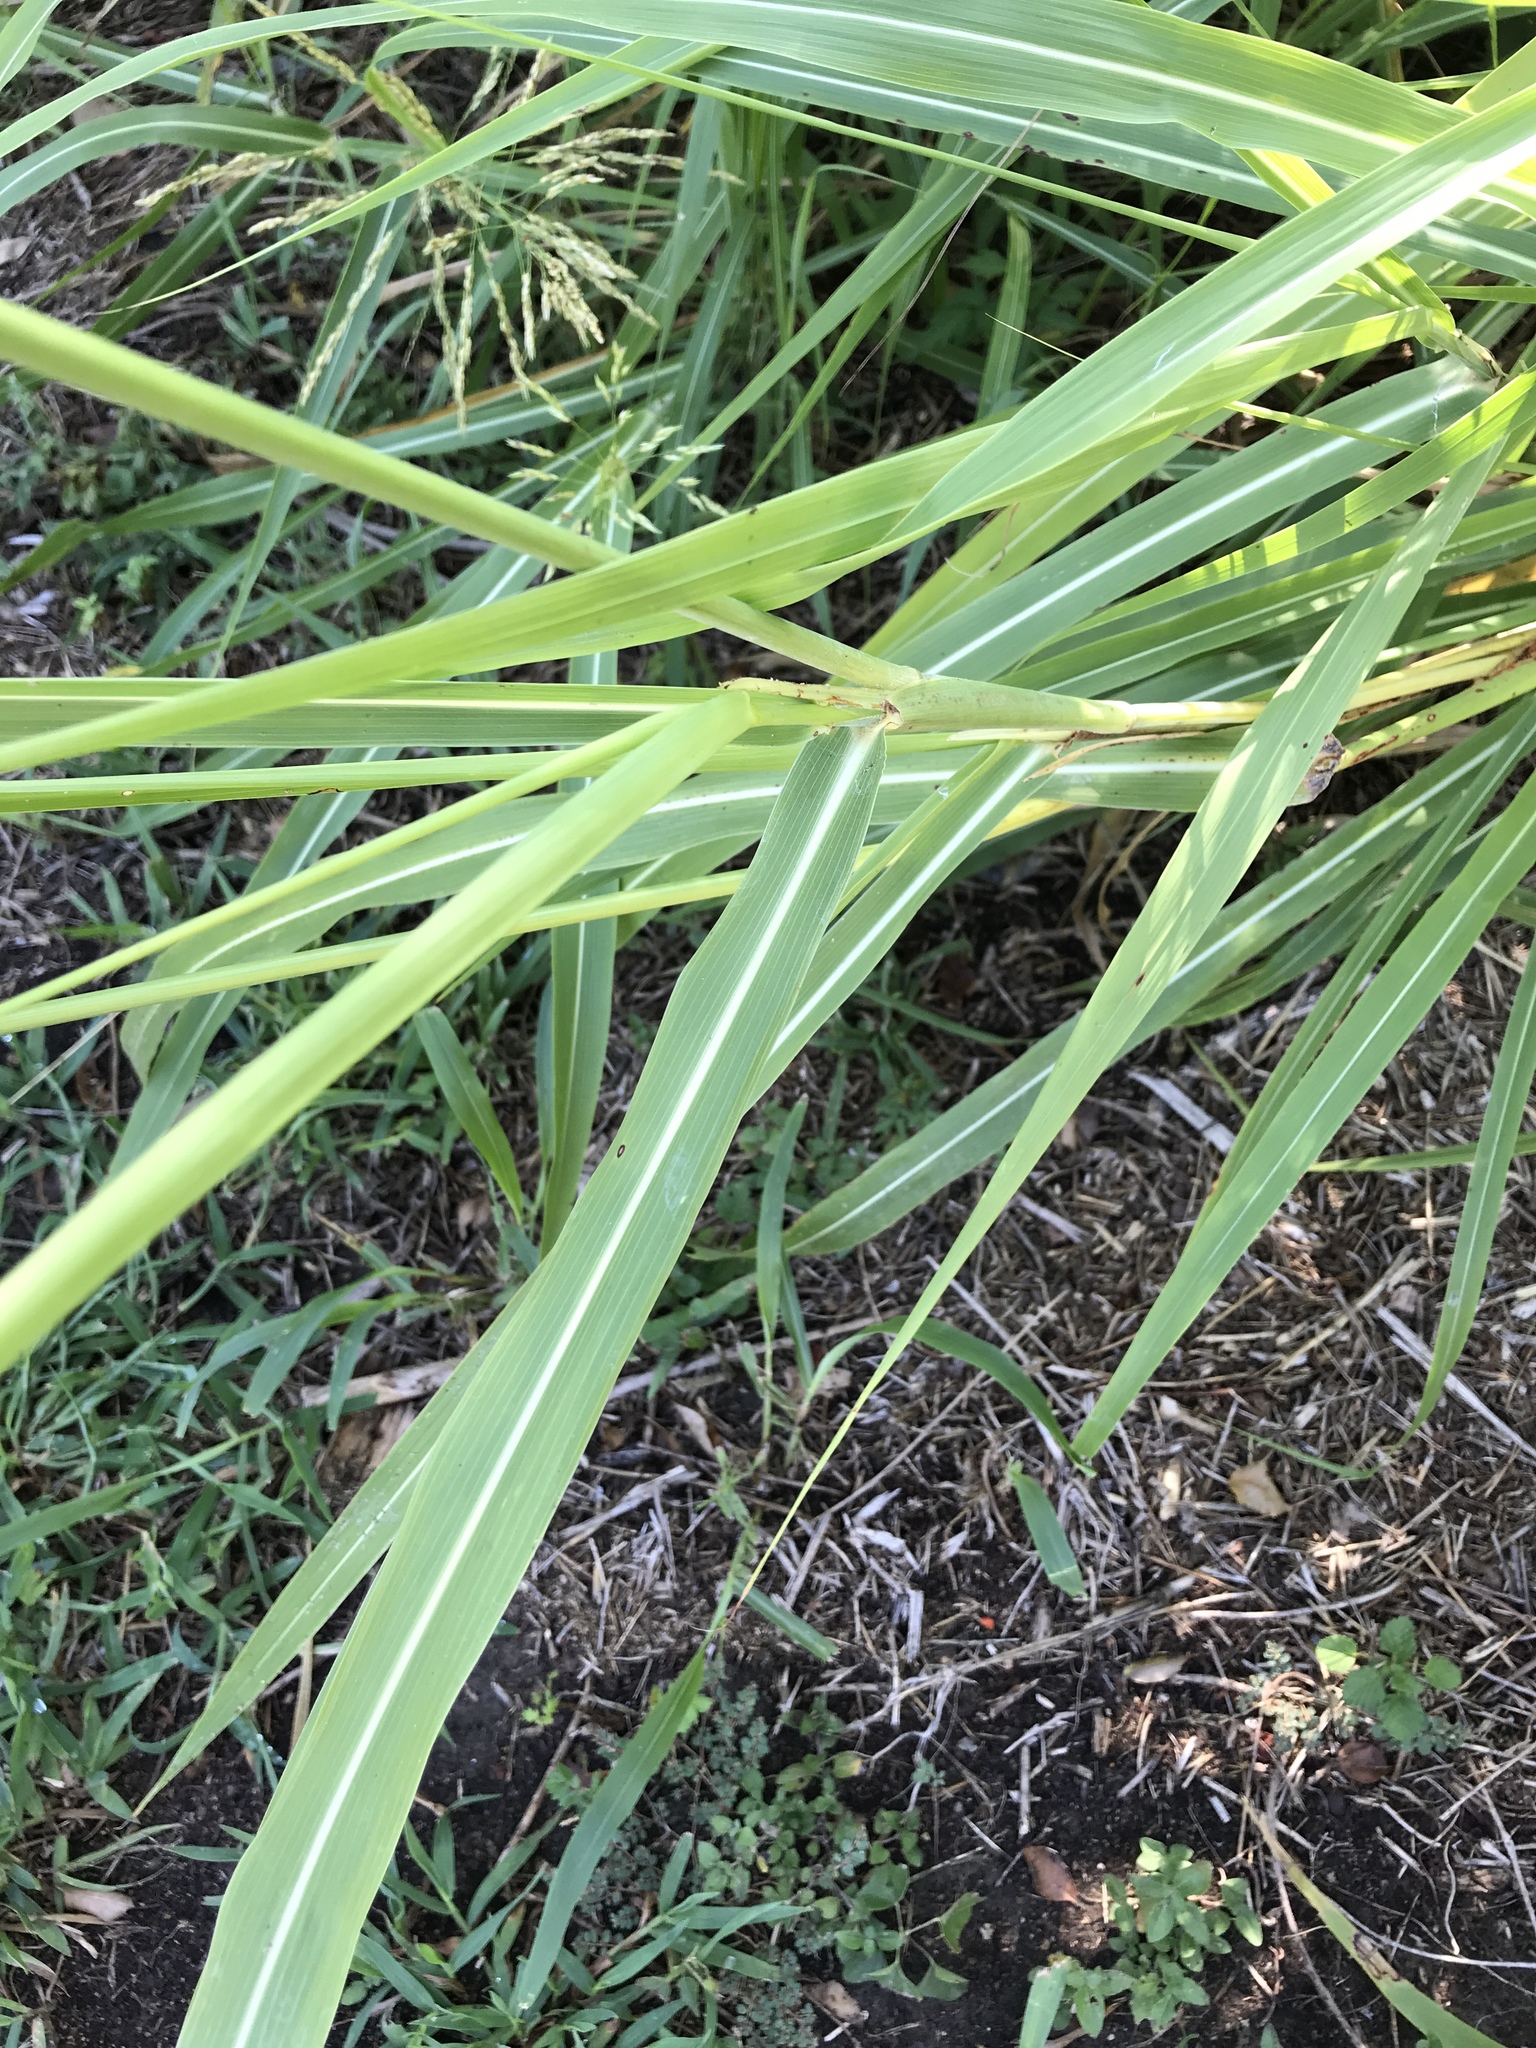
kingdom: Plantae
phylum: Tracheophyta
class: Liliopsida
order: Poales
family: Poaceae
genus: Sorghum
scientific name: Sorghum halepense
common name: Johnson-grass
